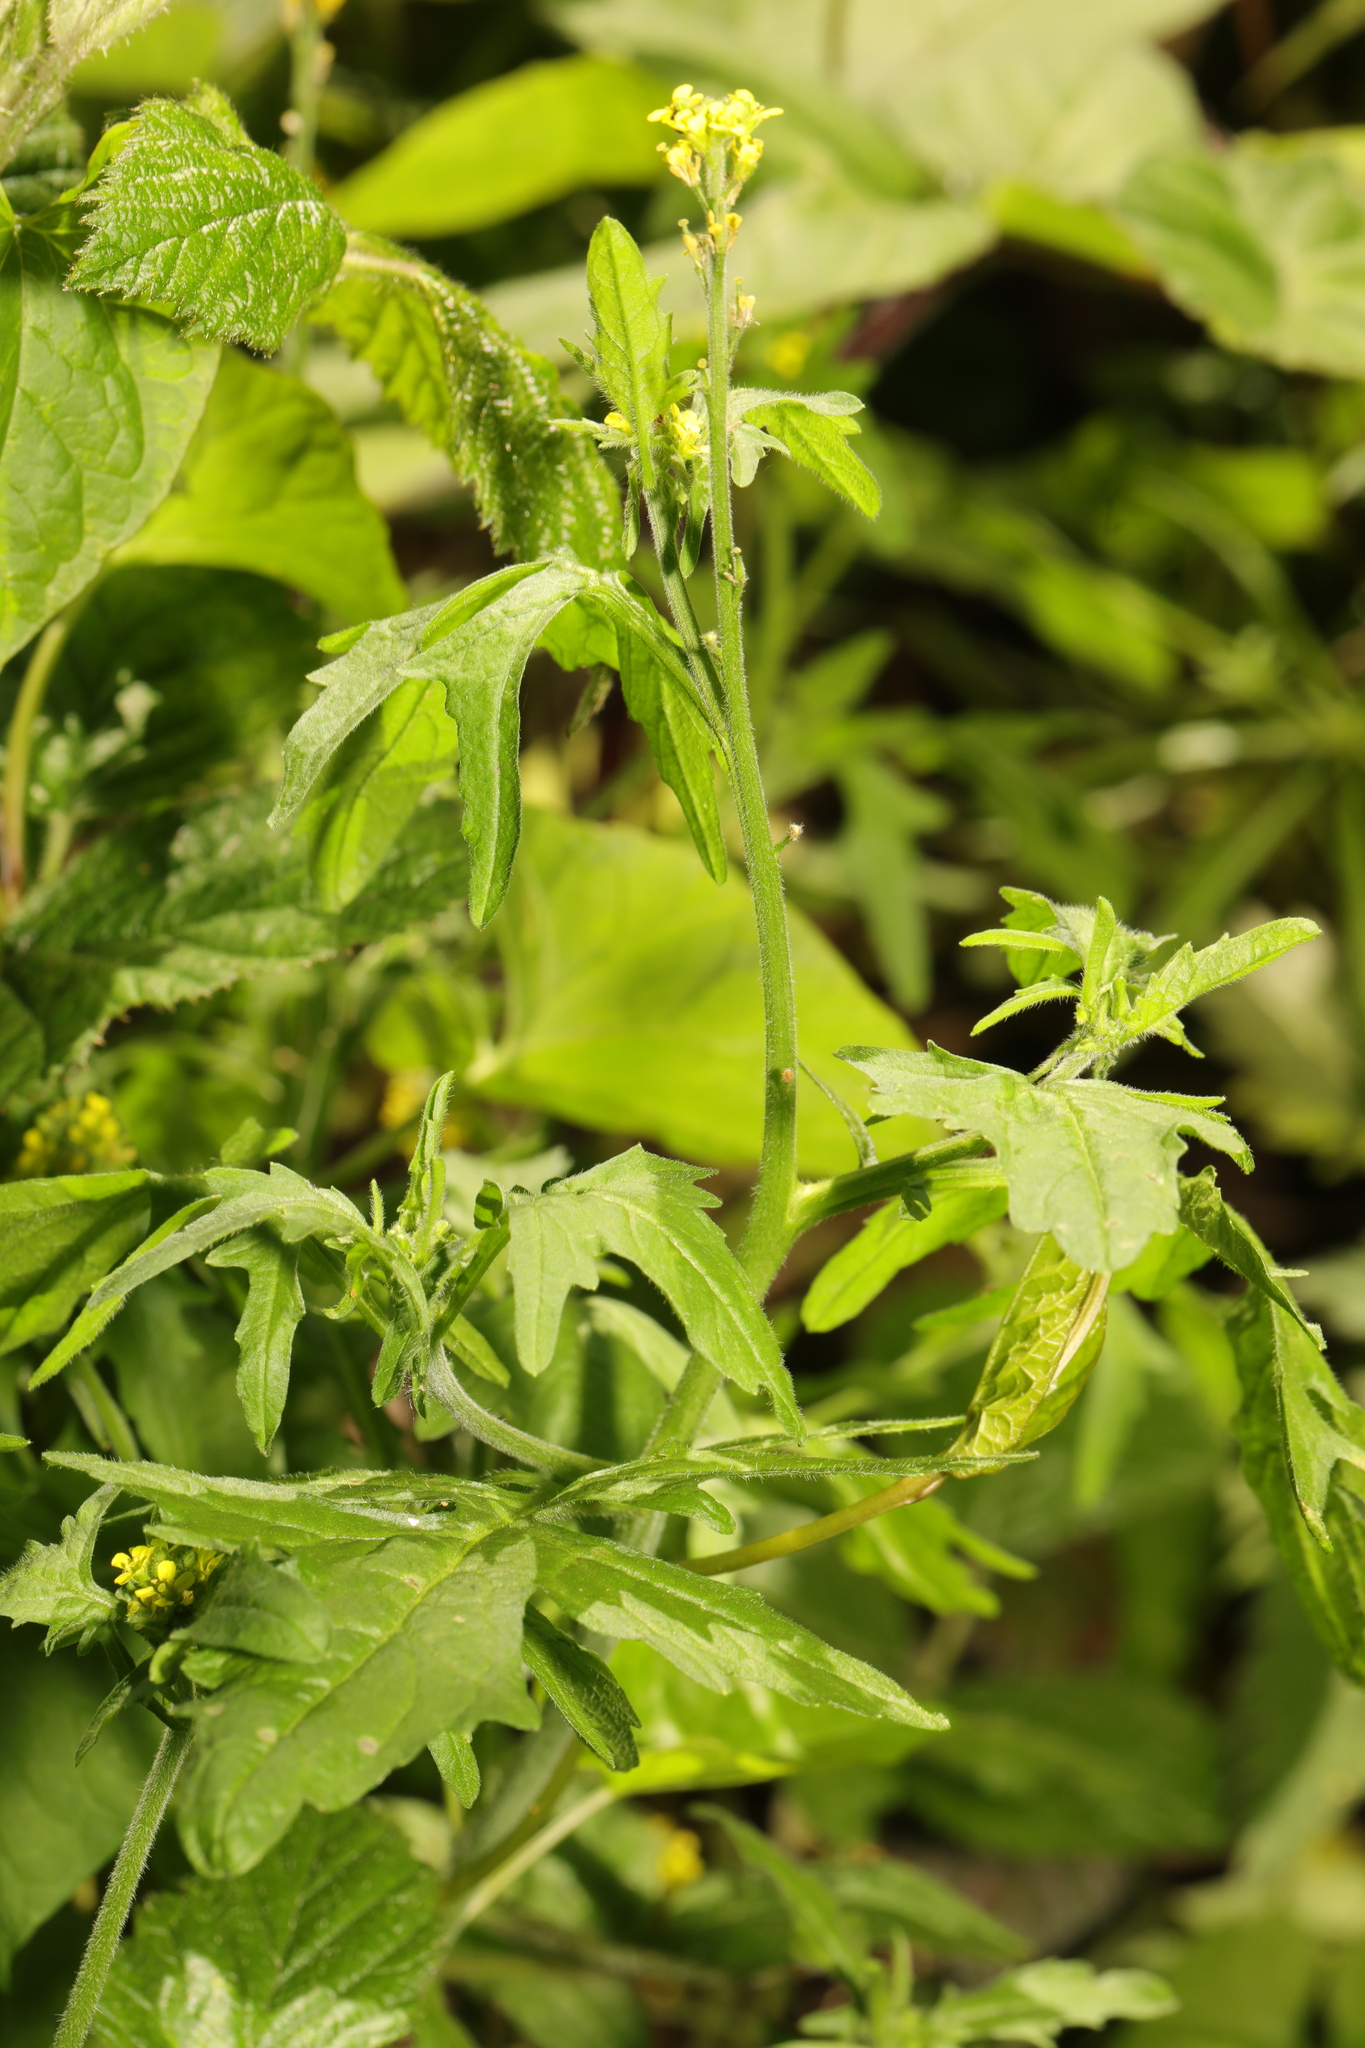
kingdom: Plantae
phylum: Tracheophyta
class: Magnoliopsida
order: Brassicales
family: Brassicaceae
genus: Sisymbrium
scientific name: Sisymbrium officinale
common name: Hedge mustard
